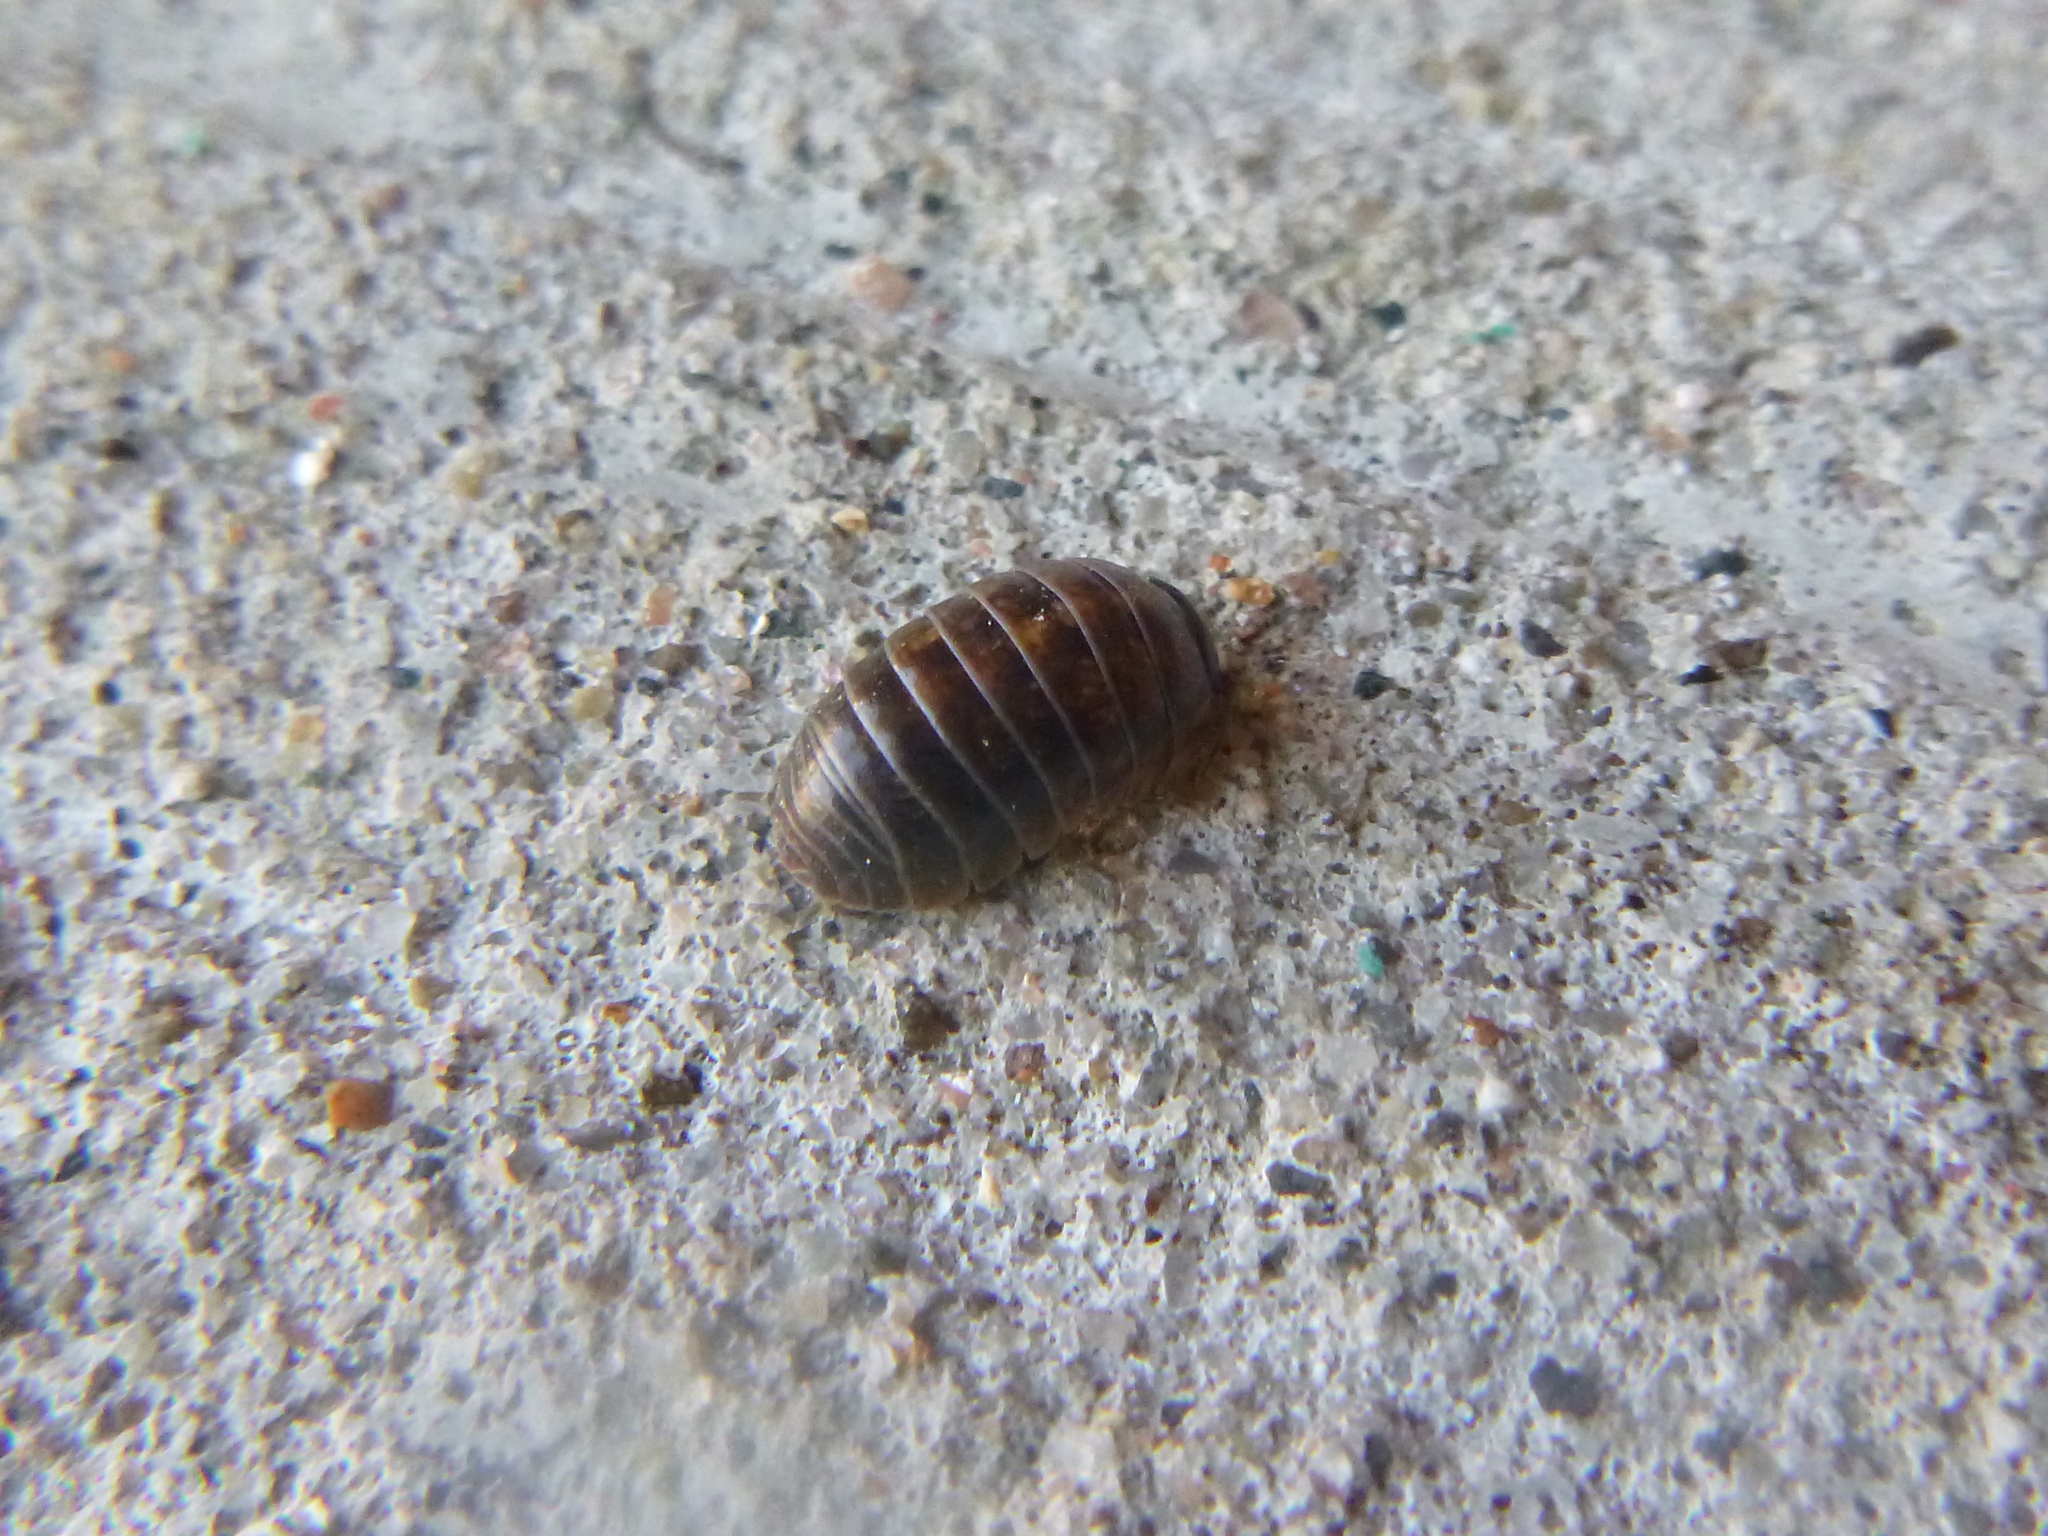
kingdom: Animalia
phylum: Arthropoda
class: Malacostraca
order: Isopoda
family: Armadillidiidae
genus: Armadillidium
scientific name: Armadillidium vulgare
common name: Common pill woodlouse
